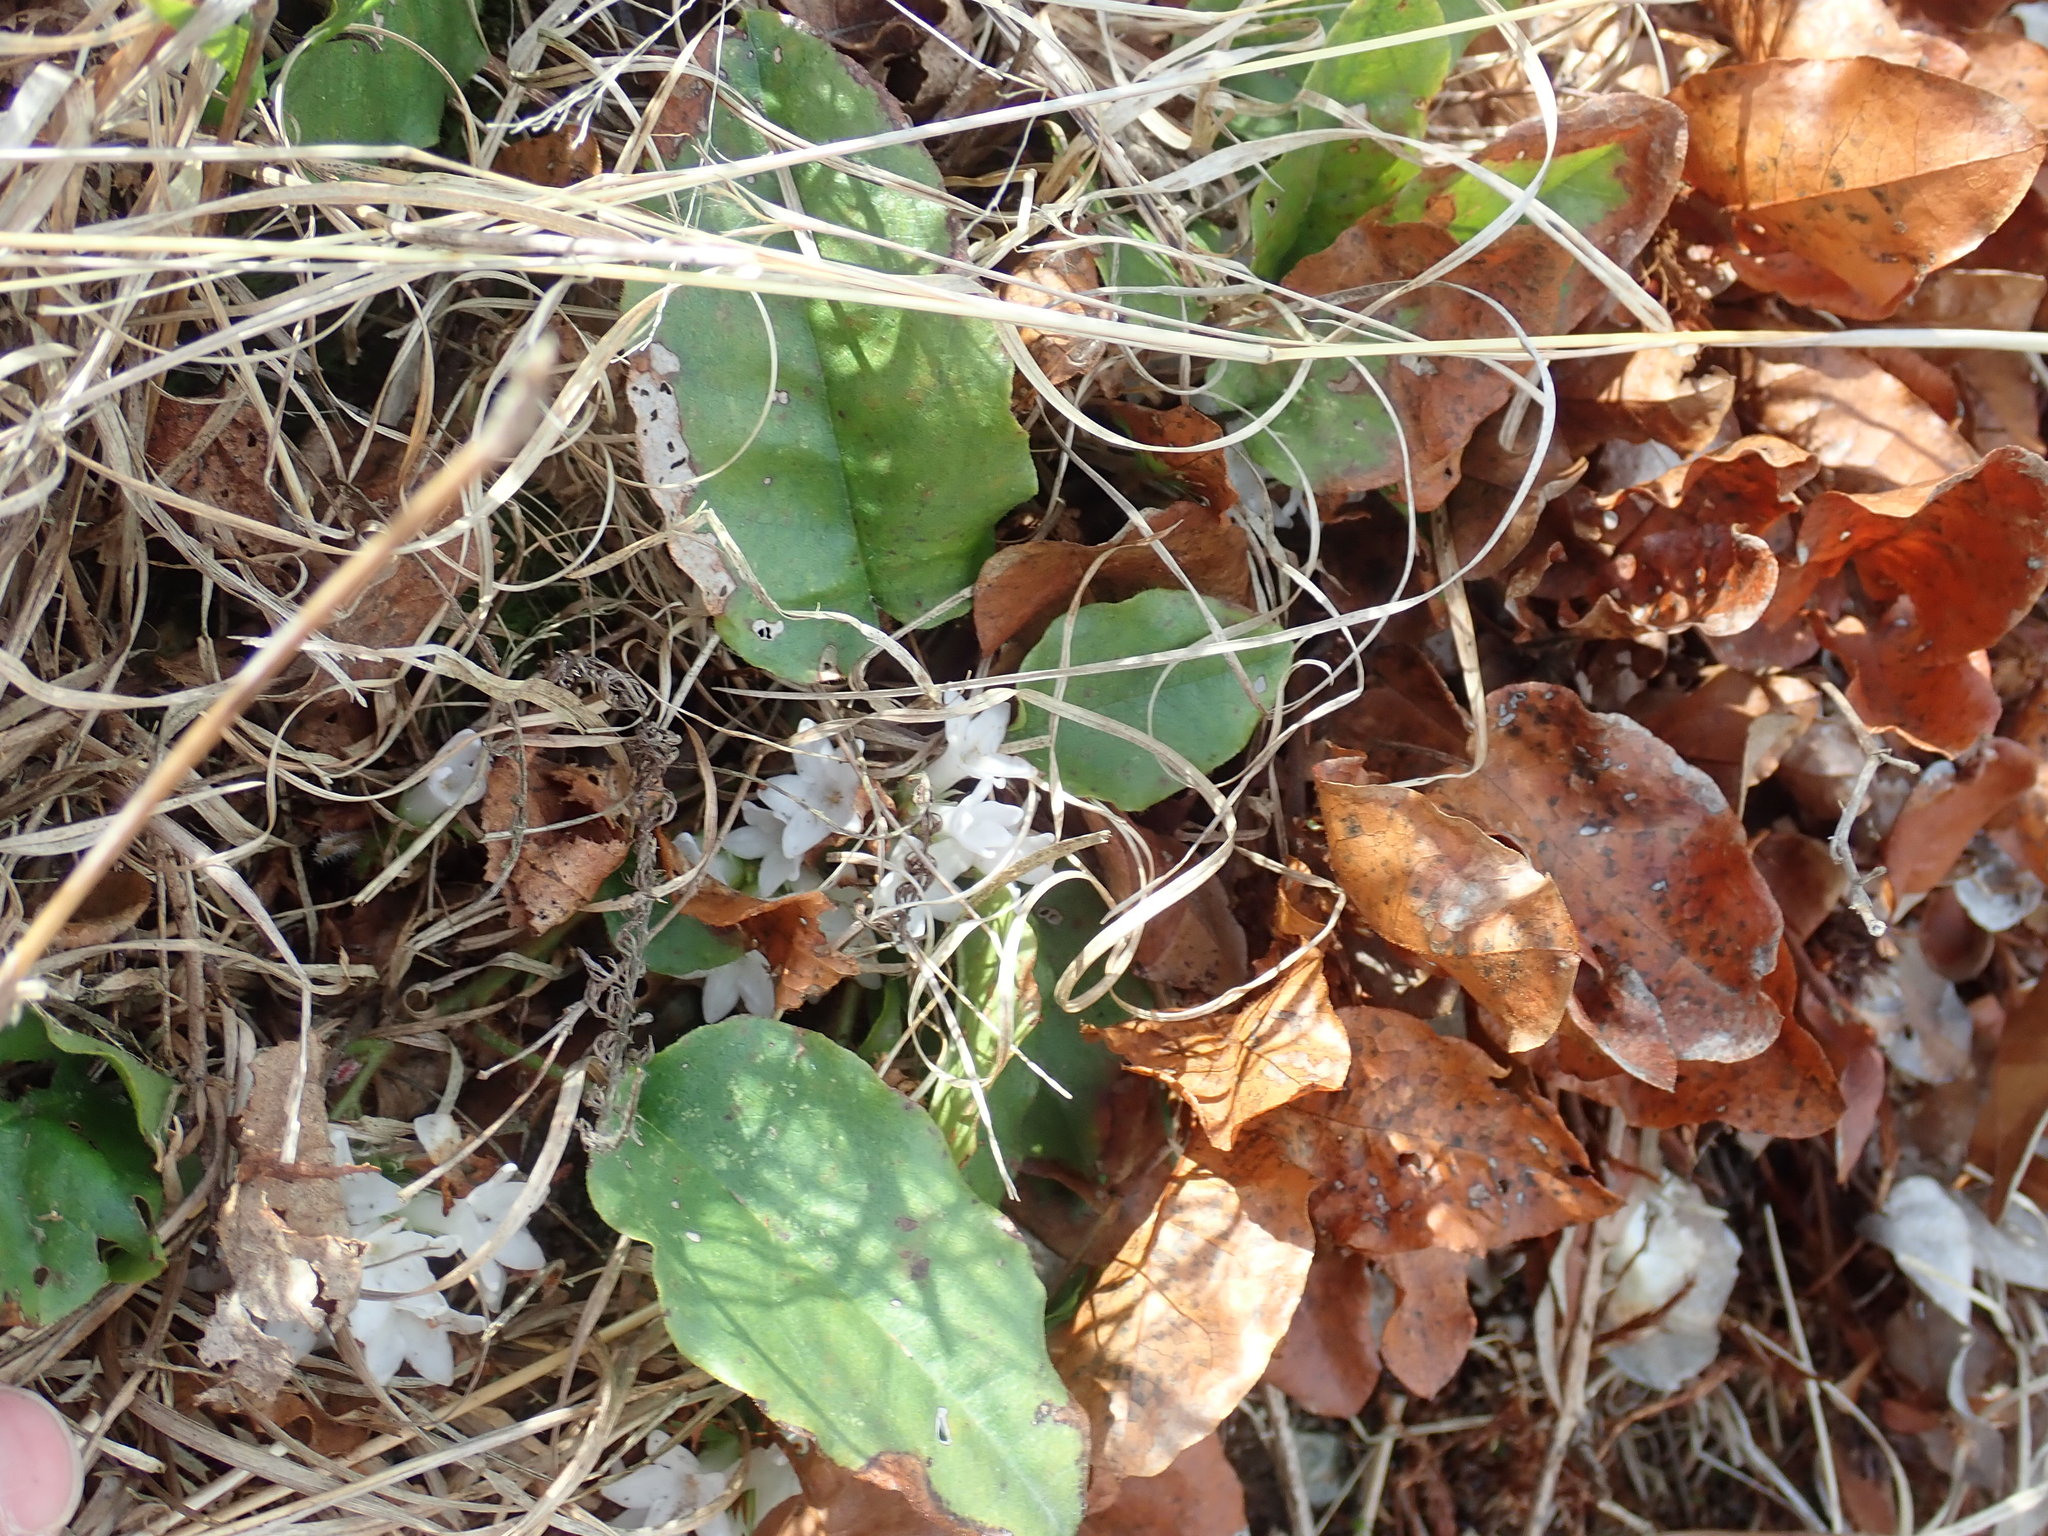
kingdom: Plantae
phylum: Tracheophyta
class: Magnoliopsida
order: Ericales
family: Ericaceae
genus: Epigaea
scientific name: Epigaea repens
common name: Gravelroot
